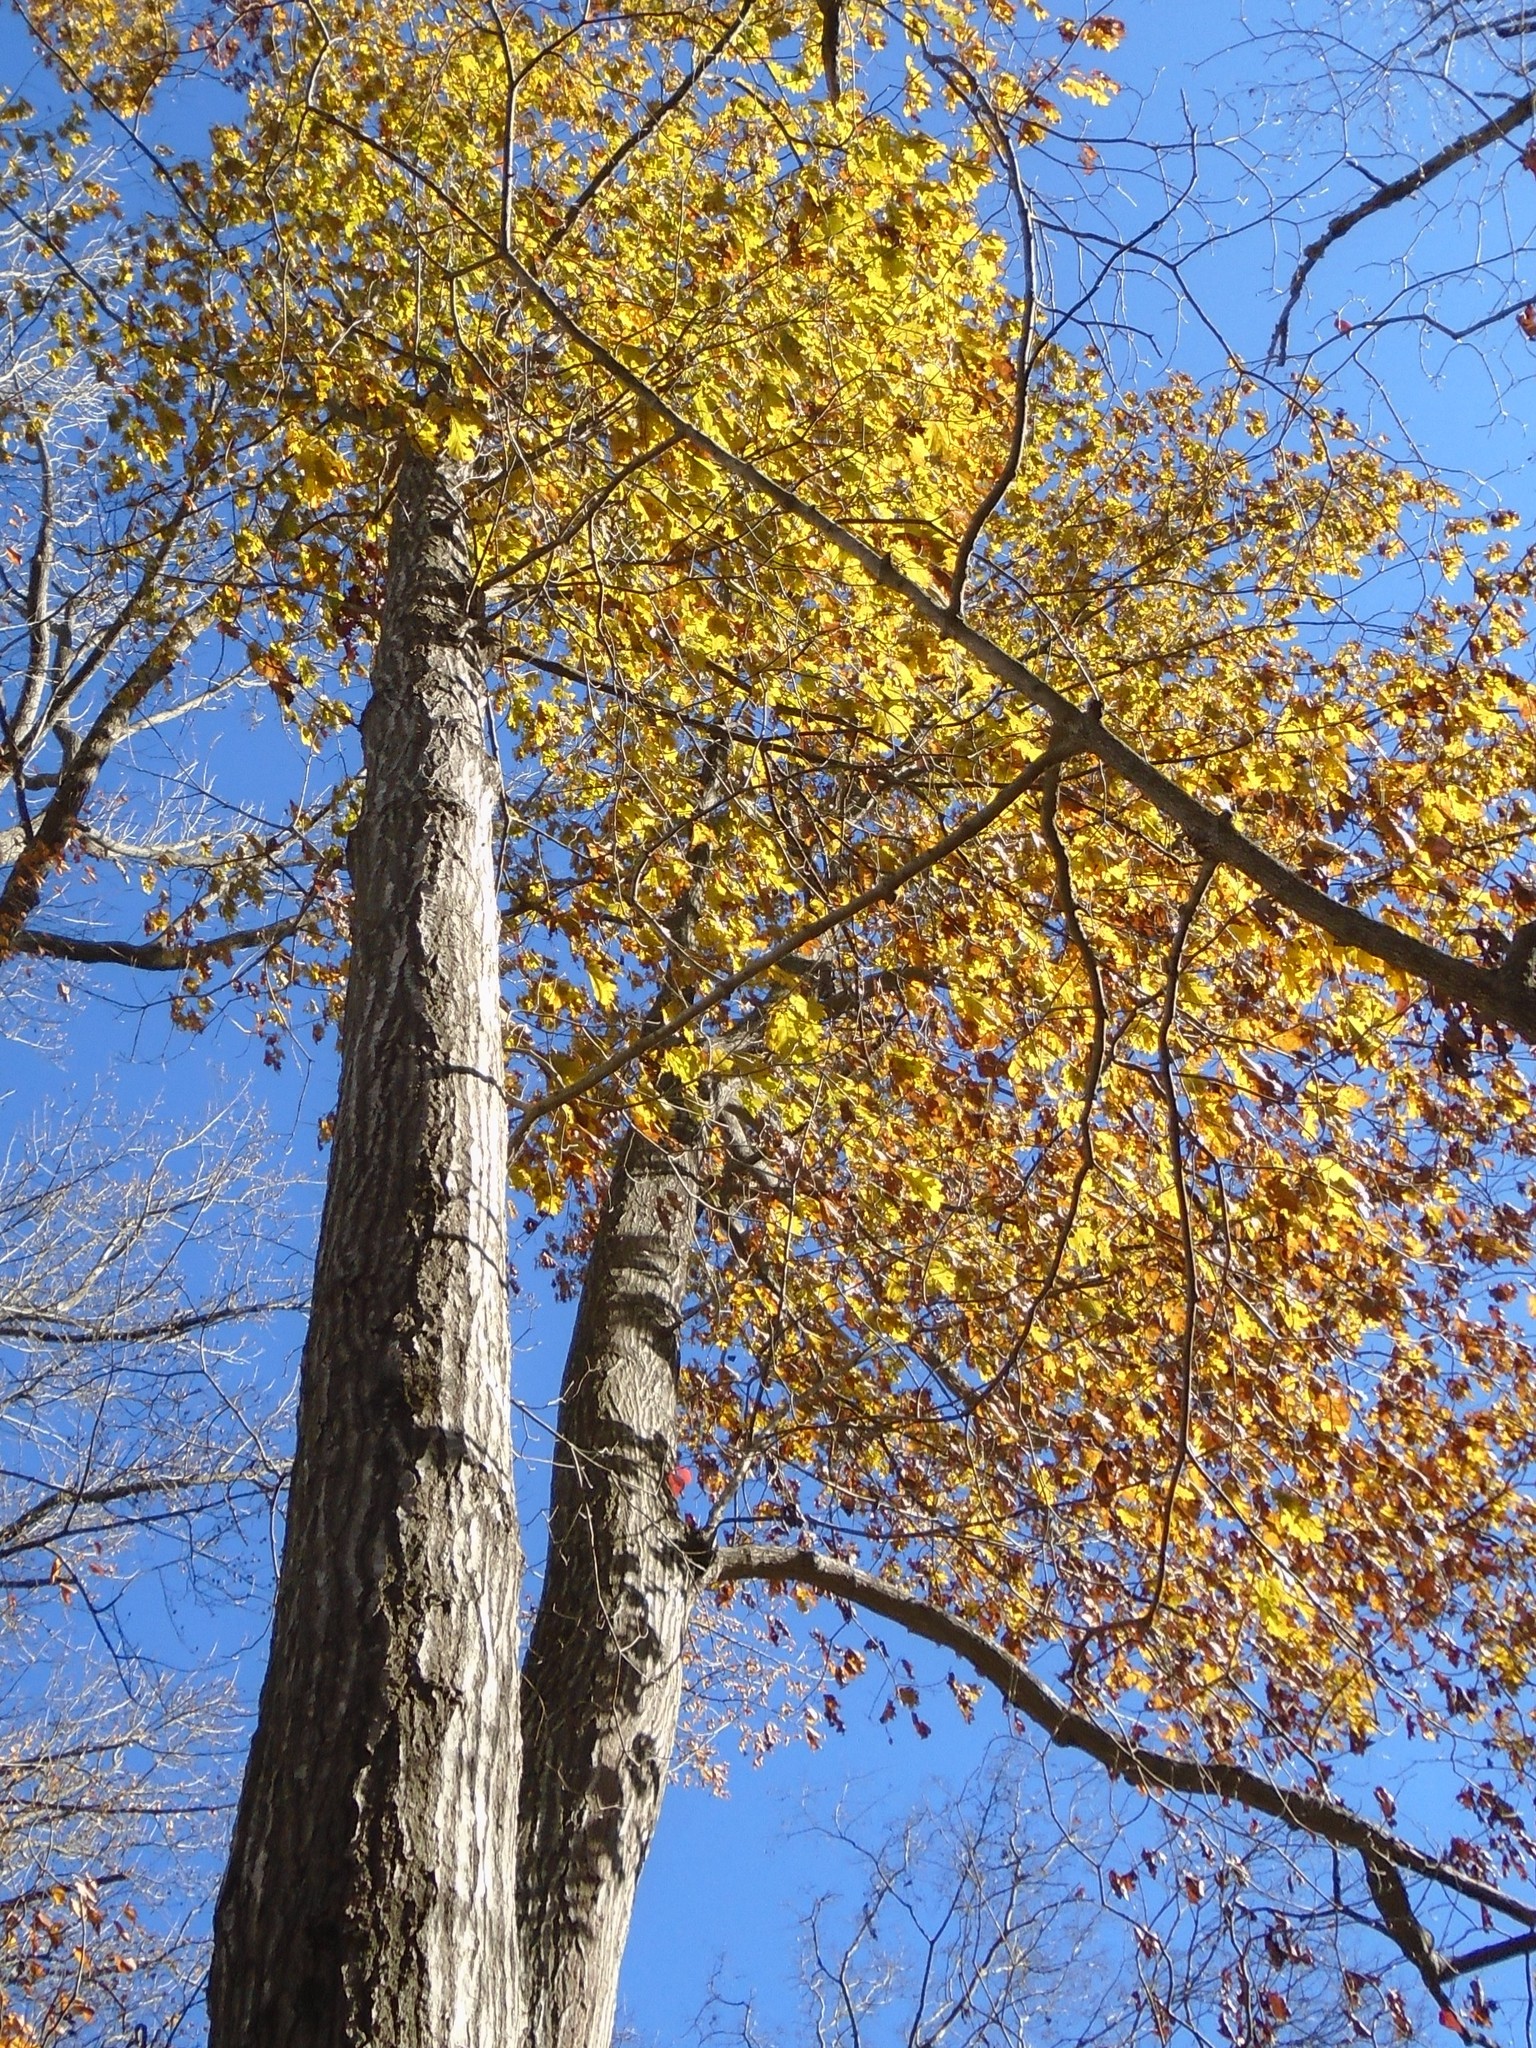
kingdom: Plantae
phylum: Tracheophyta
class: Magnoliopsida
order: Fagales
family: Fagaceae
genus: Quercus
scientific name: Quercus rubra
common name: Red oak
